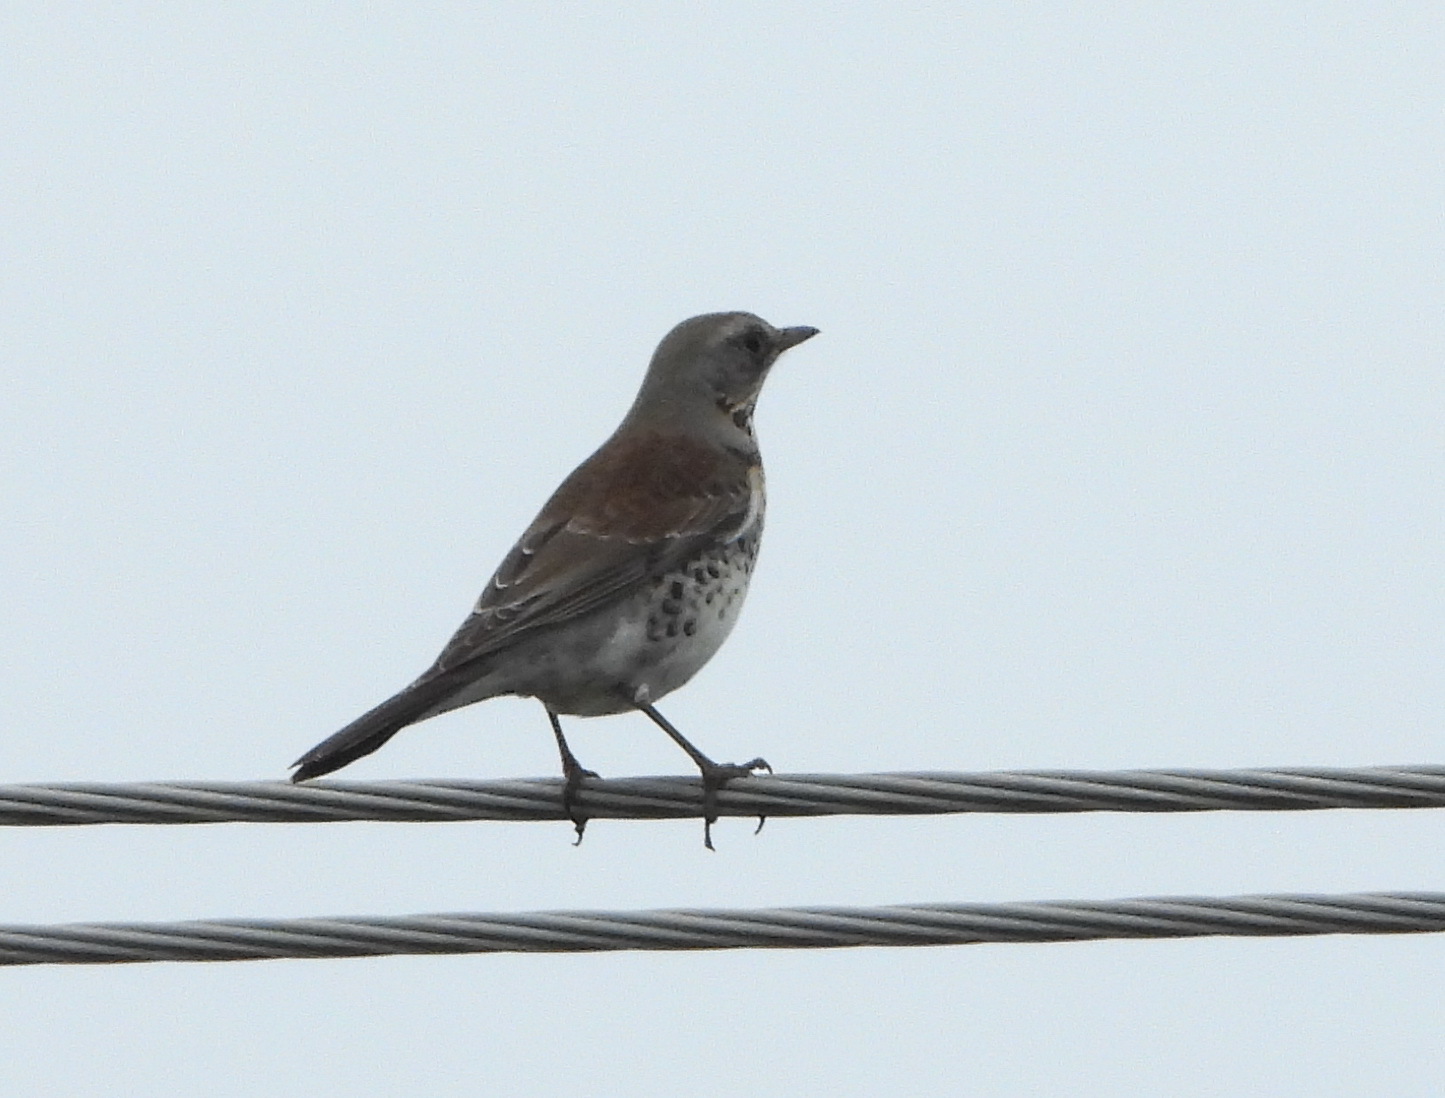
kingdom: Animalia
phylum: Chordata
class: Aves
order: Passeriformes
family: Turdidae
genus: Turdus
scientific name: Turdus pilaris
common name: Fieldfare
